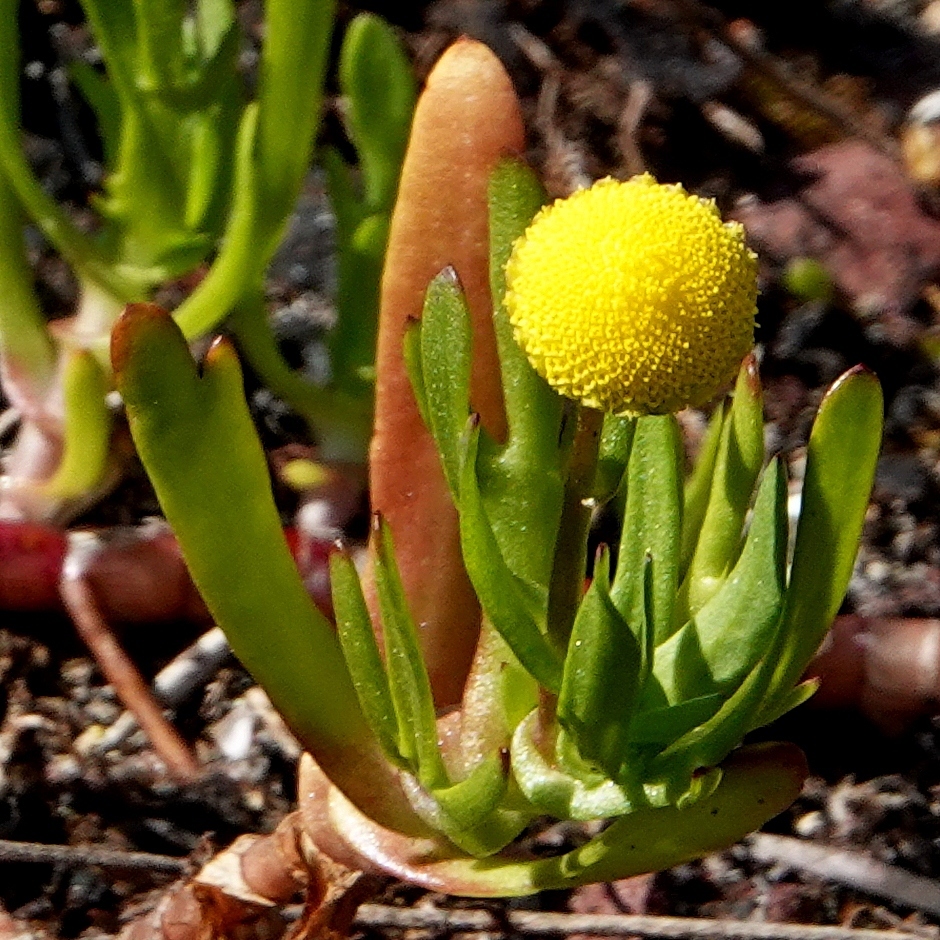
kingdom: Plantae
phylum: Tracheophyta
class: Magnoliopsida
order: Asterales
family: Asteraceae
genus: Cotula
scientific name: Cotula coronopifolia
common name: Buttonweed
